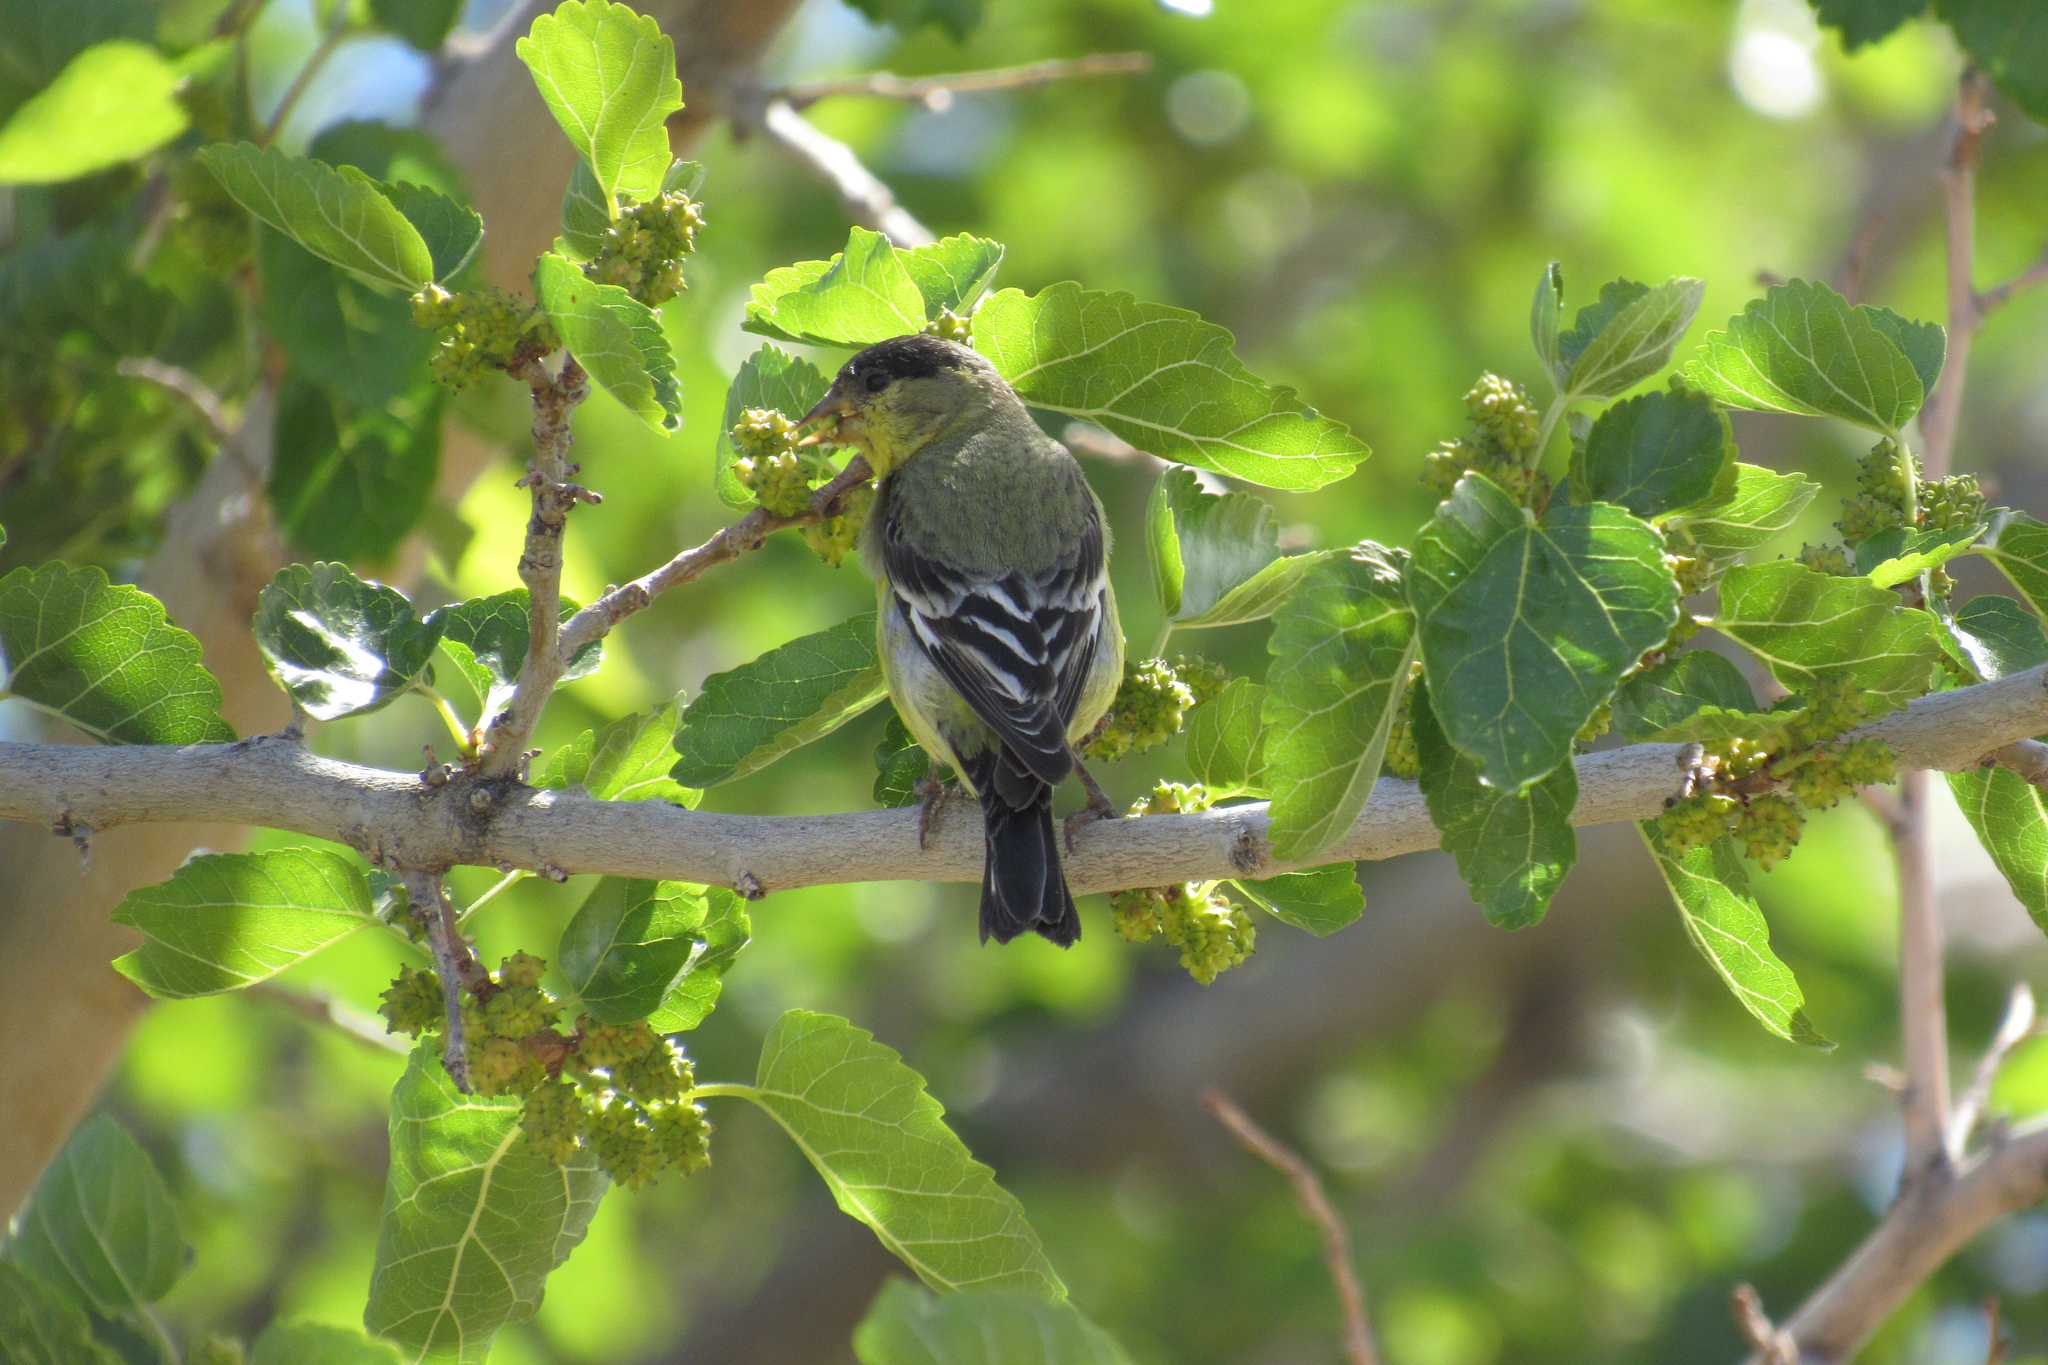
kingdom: Animalia
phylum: Chordata
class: Aves
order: Passeriformes
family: Fringillidae
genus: Spinus
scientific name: Spinus psaltria
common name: Lesser goldfinch
